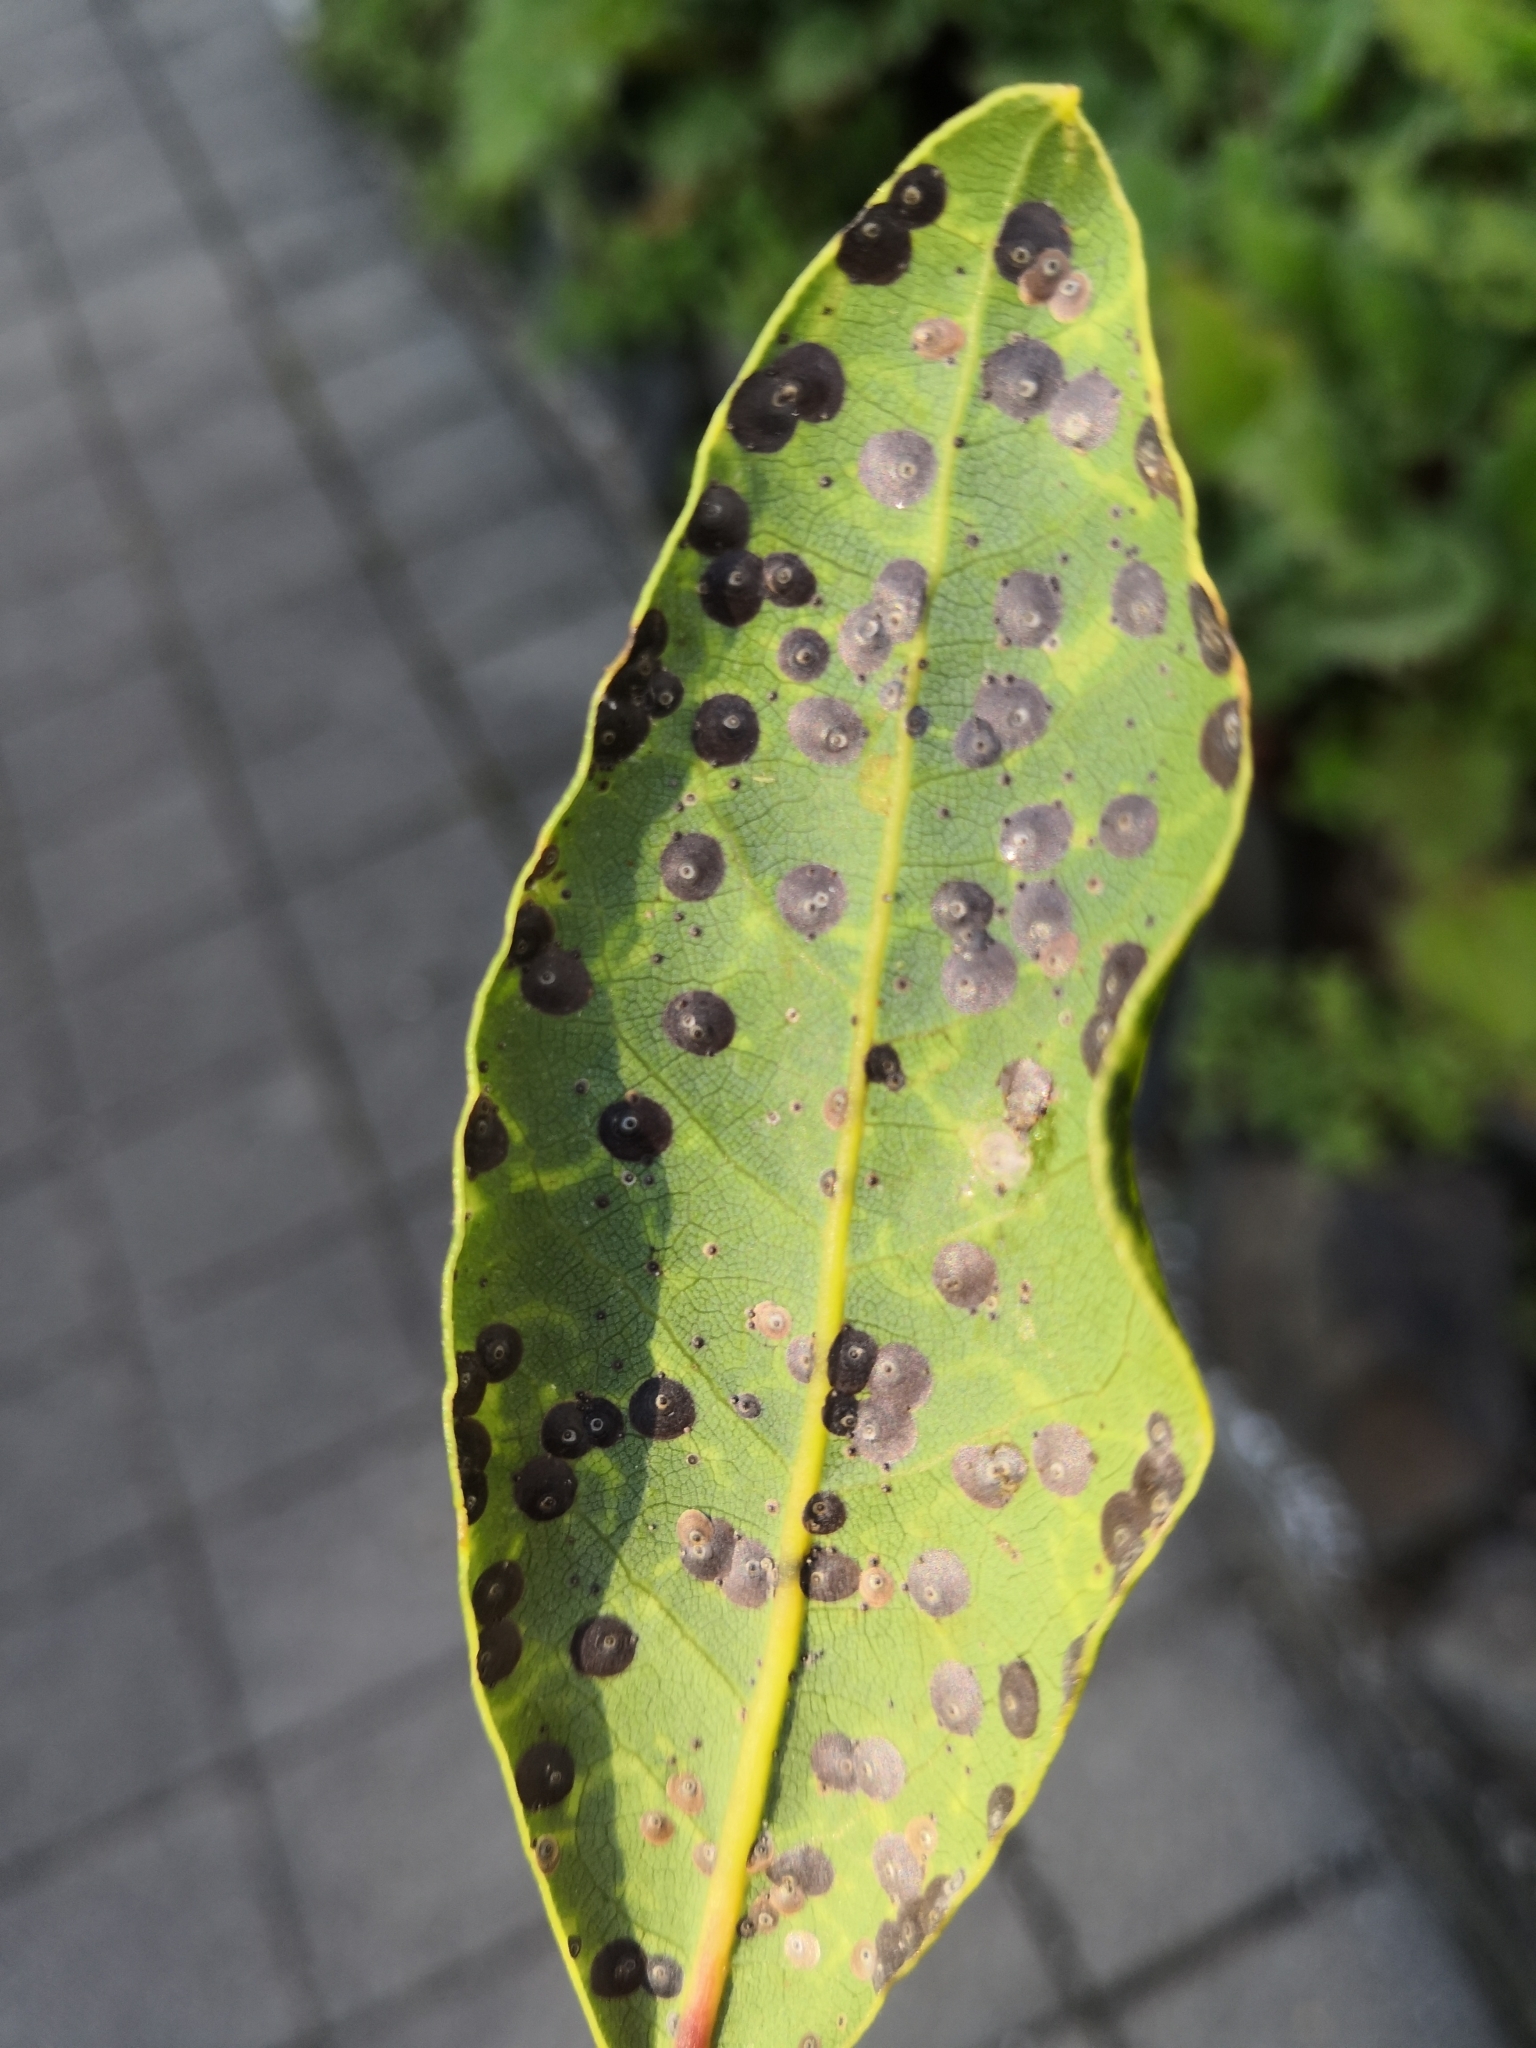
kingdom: Plantae
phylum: Tracheophyta
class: Magnoliopsida
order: Laurales
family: Lauraceae
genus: Laurus
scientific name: Laurus nobilis
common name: Bay
